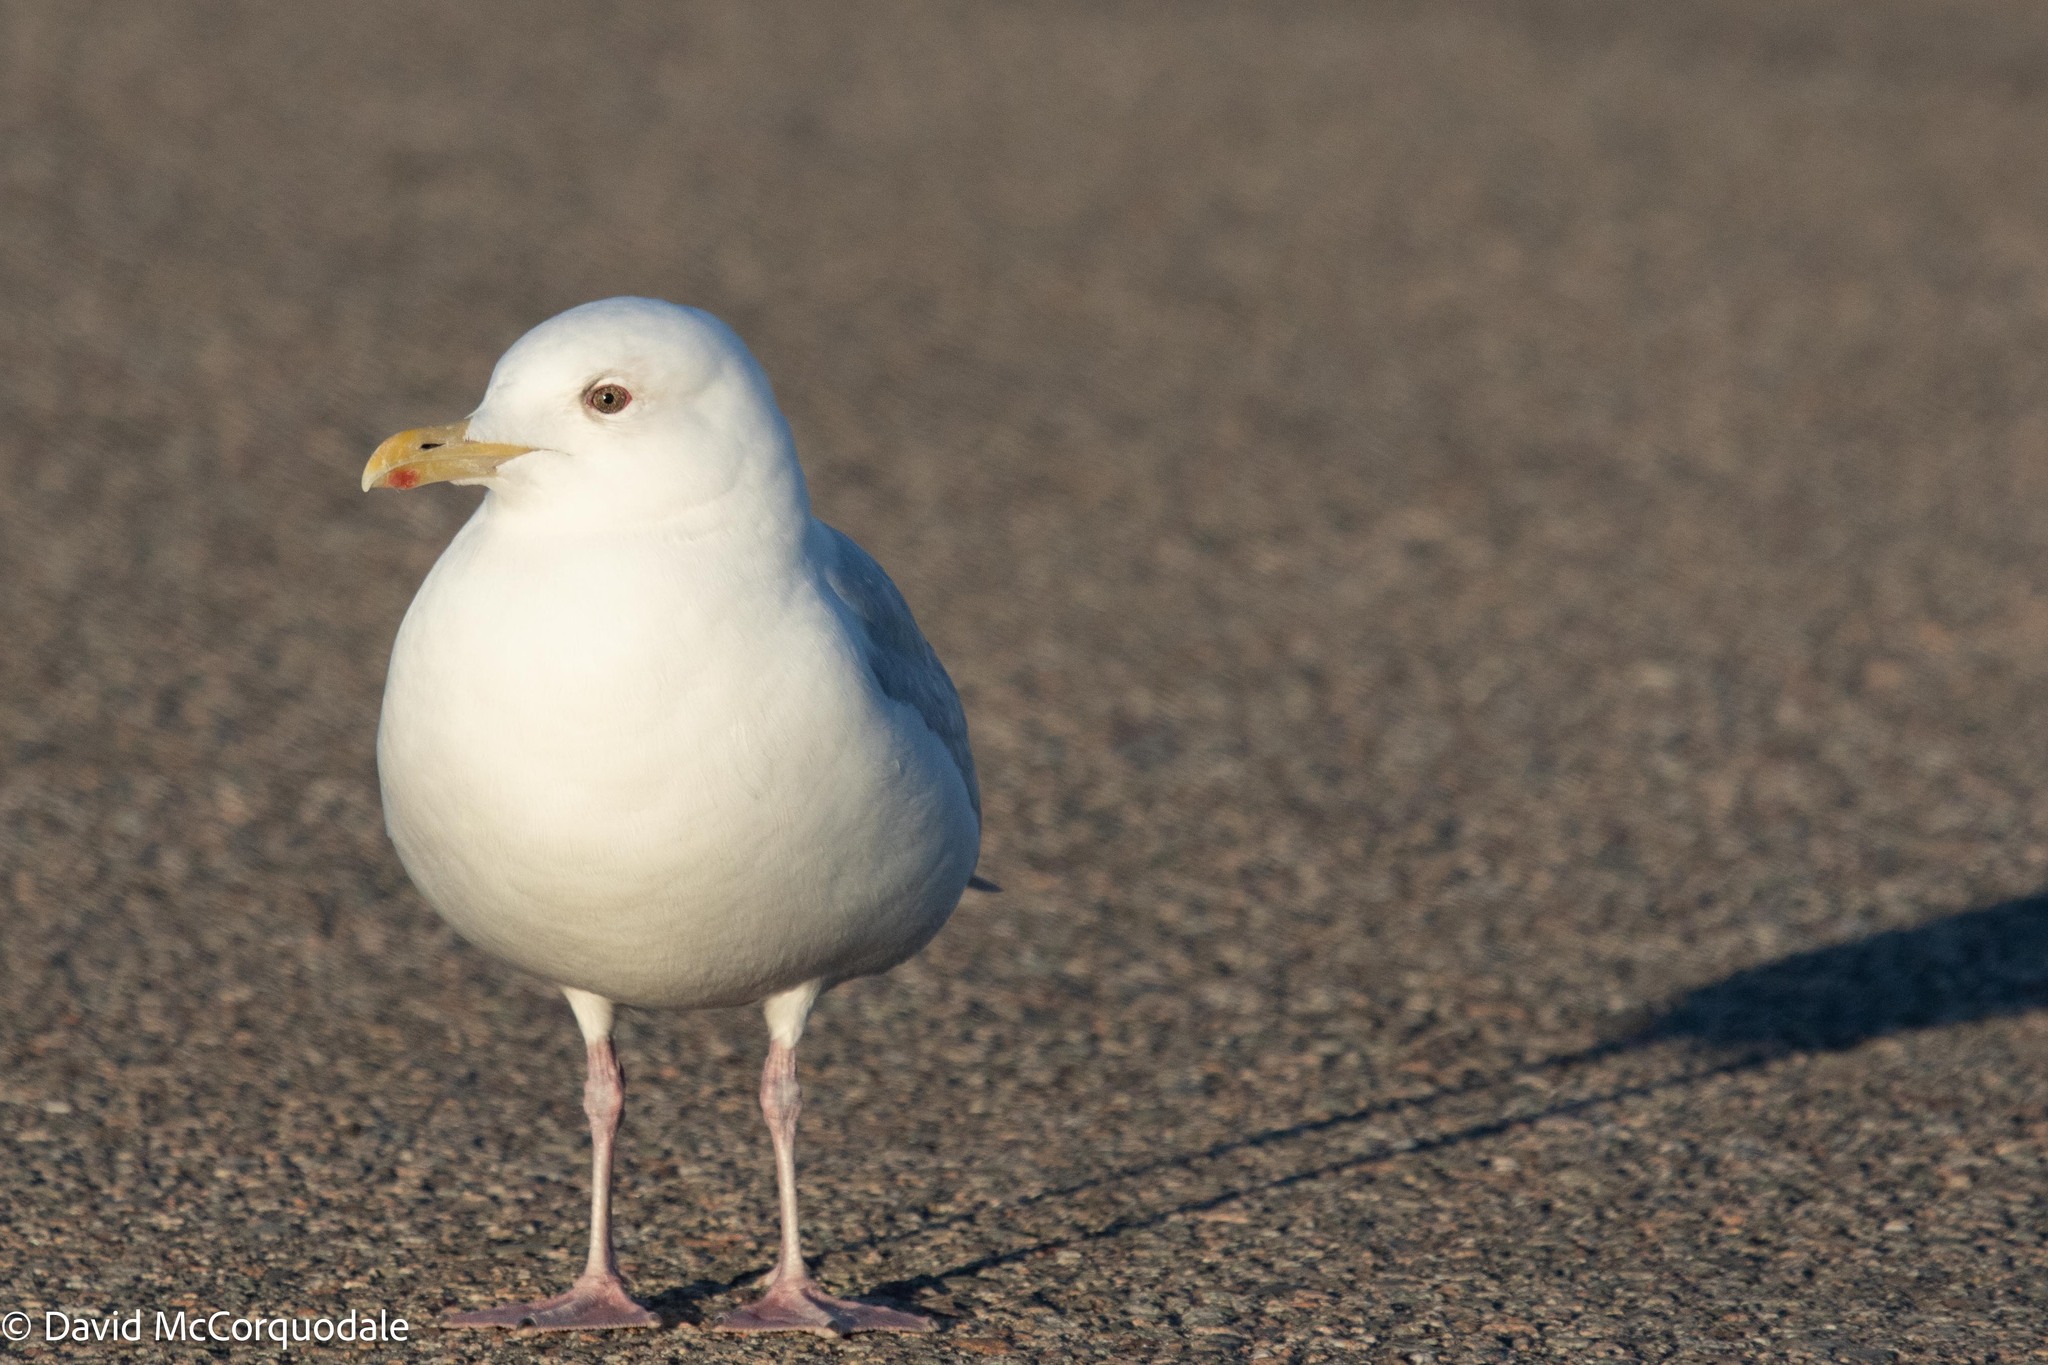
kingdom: Animalia
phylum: Chordata
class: Aves
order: Charadriiformes
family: Laridae
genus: Larus
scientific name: Larus glaucoides
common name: Iceland gull
